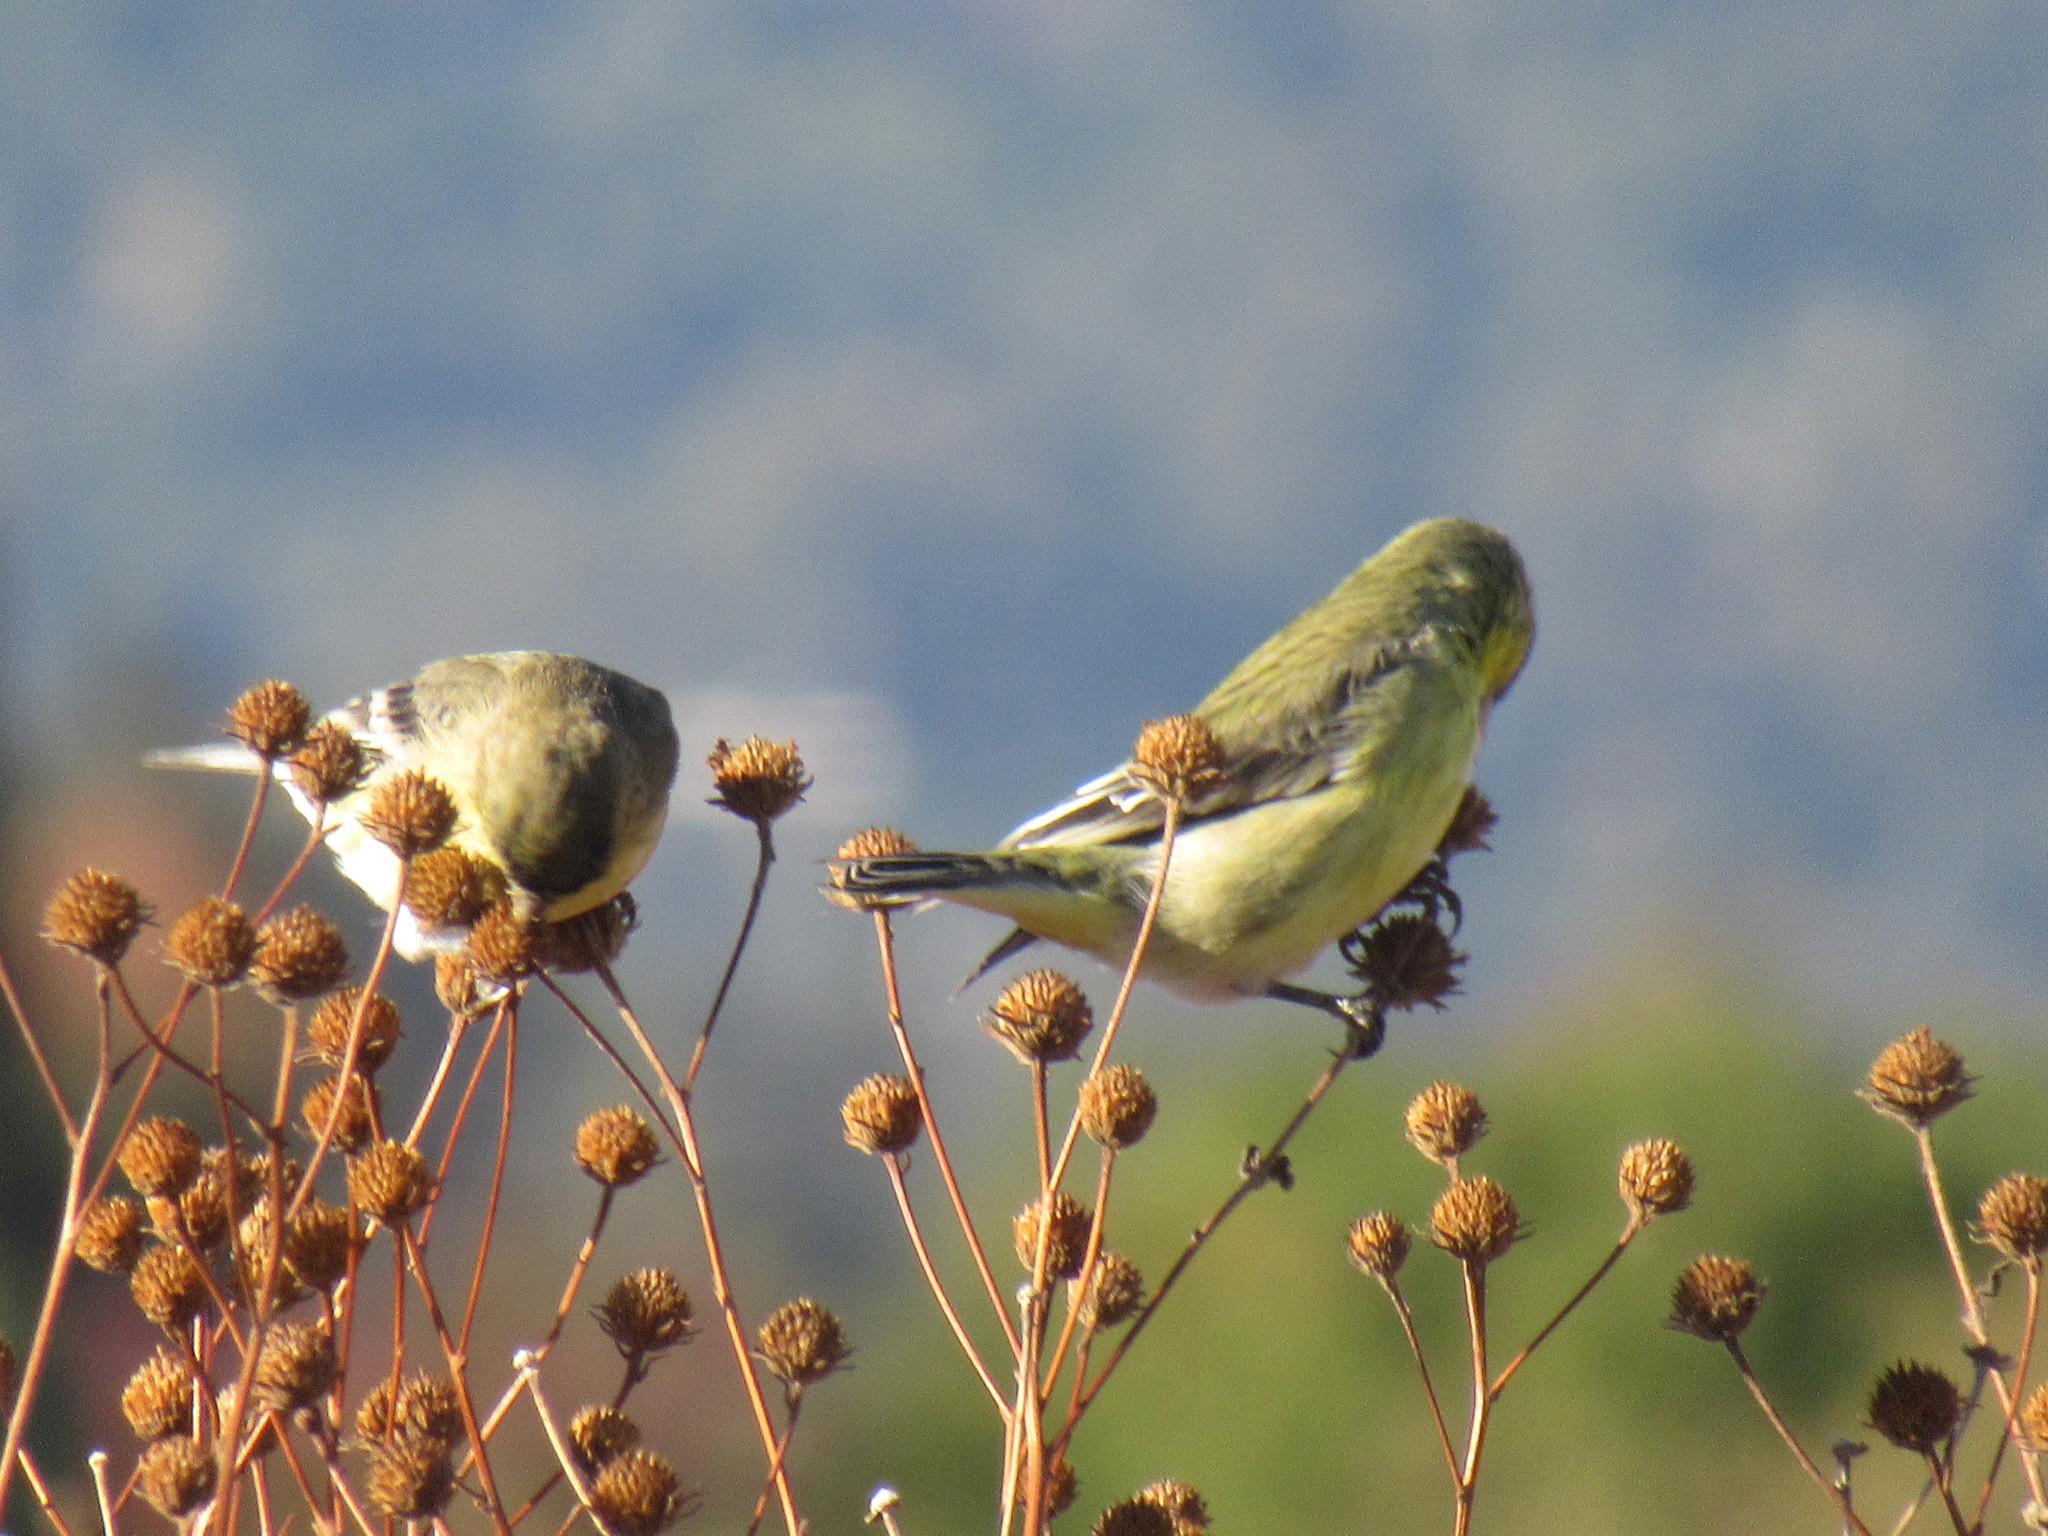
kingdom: Animalia
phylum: Chordata
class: Aves
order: Passeriformes
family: Fringillidae
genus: Spinus
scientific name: Spinus psaltria
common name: Lesser goldfinch
